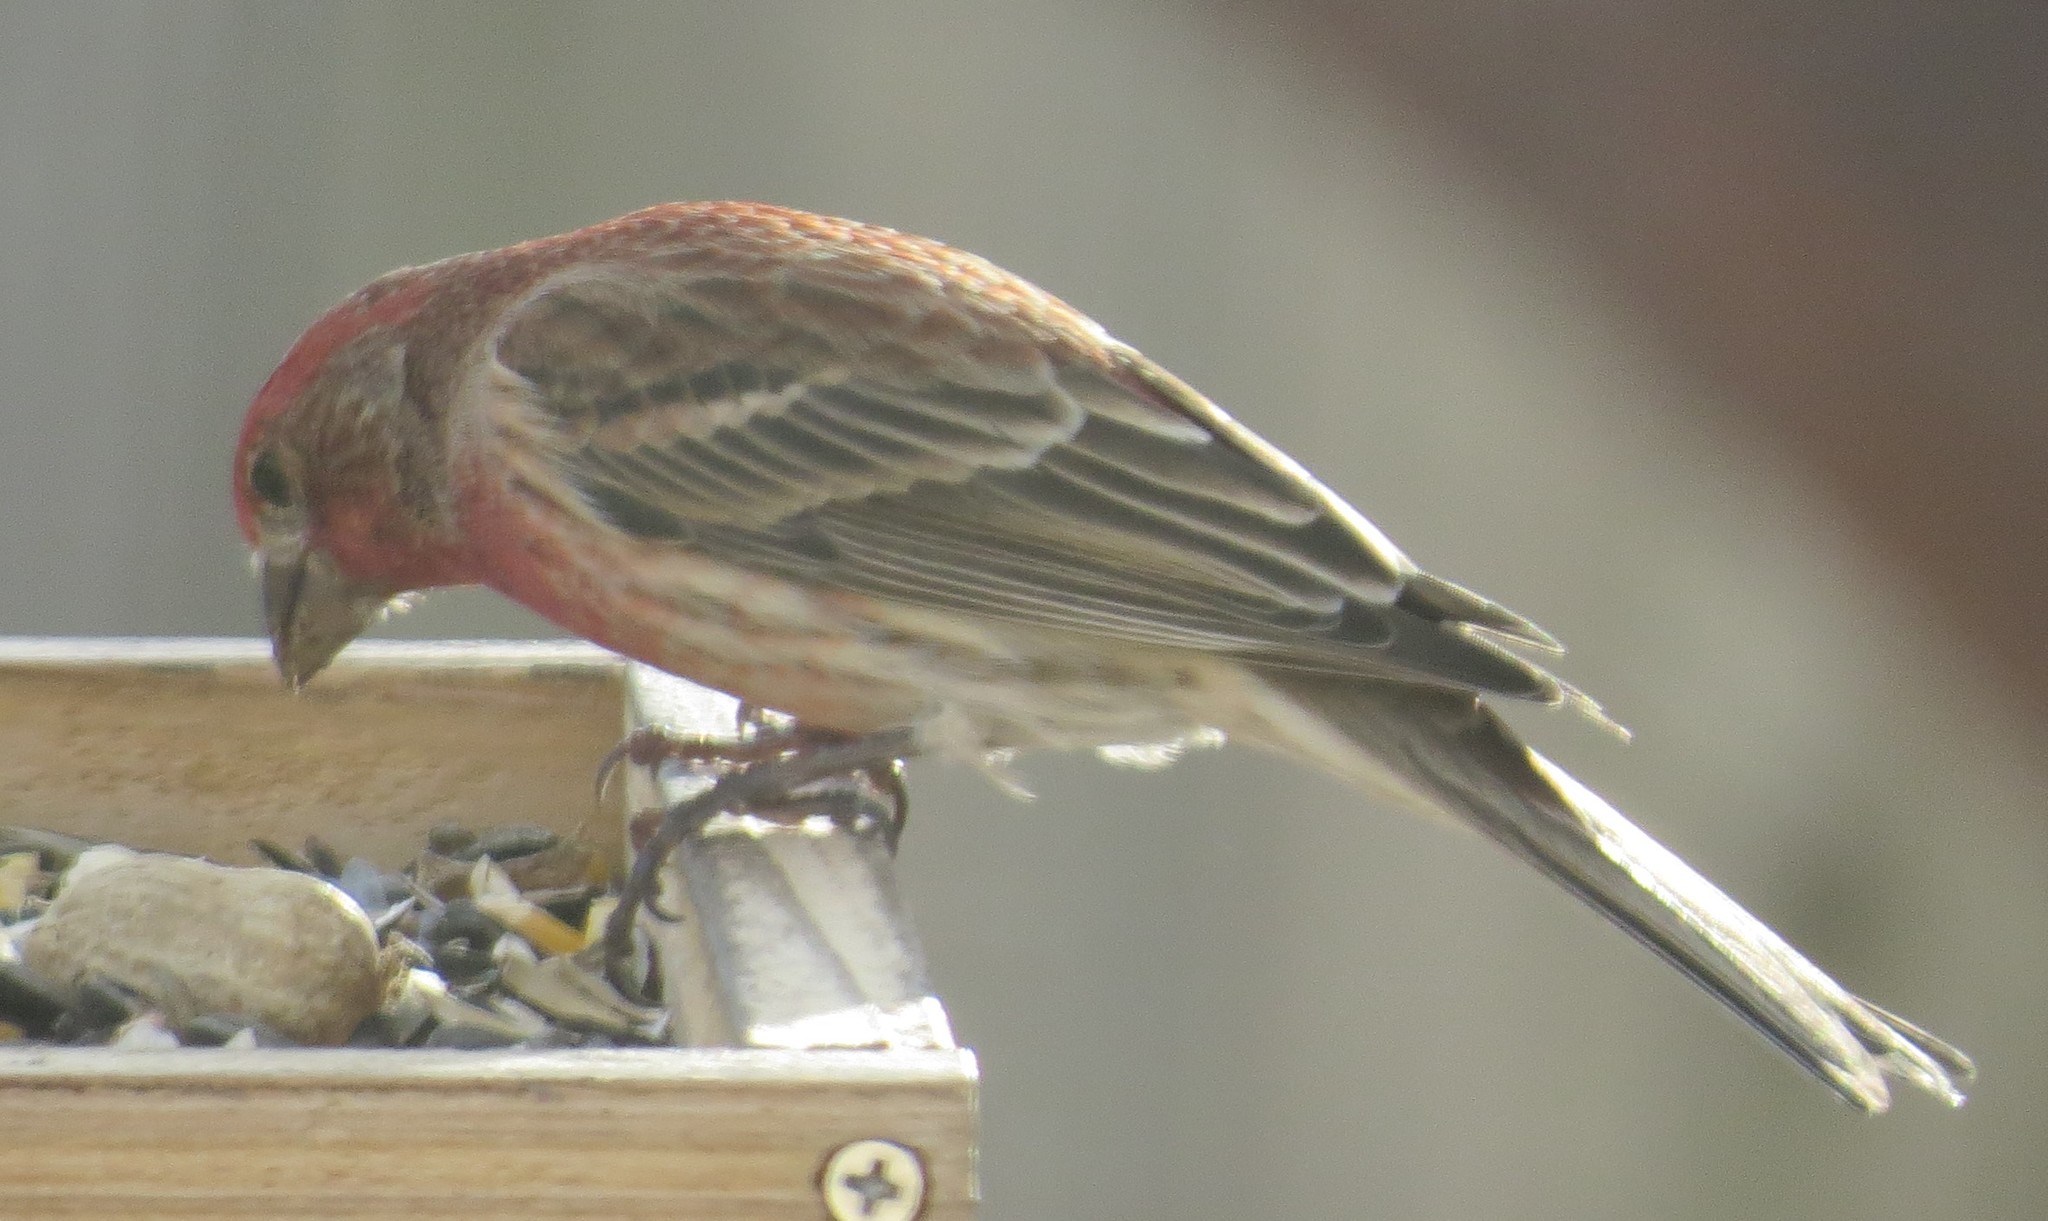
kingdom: Animalia
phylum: Chordata
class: Aves
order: Passeriformes
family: Fringillidae
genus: Haemorhous
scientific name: Haemorhous mexicanus
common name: House finch
